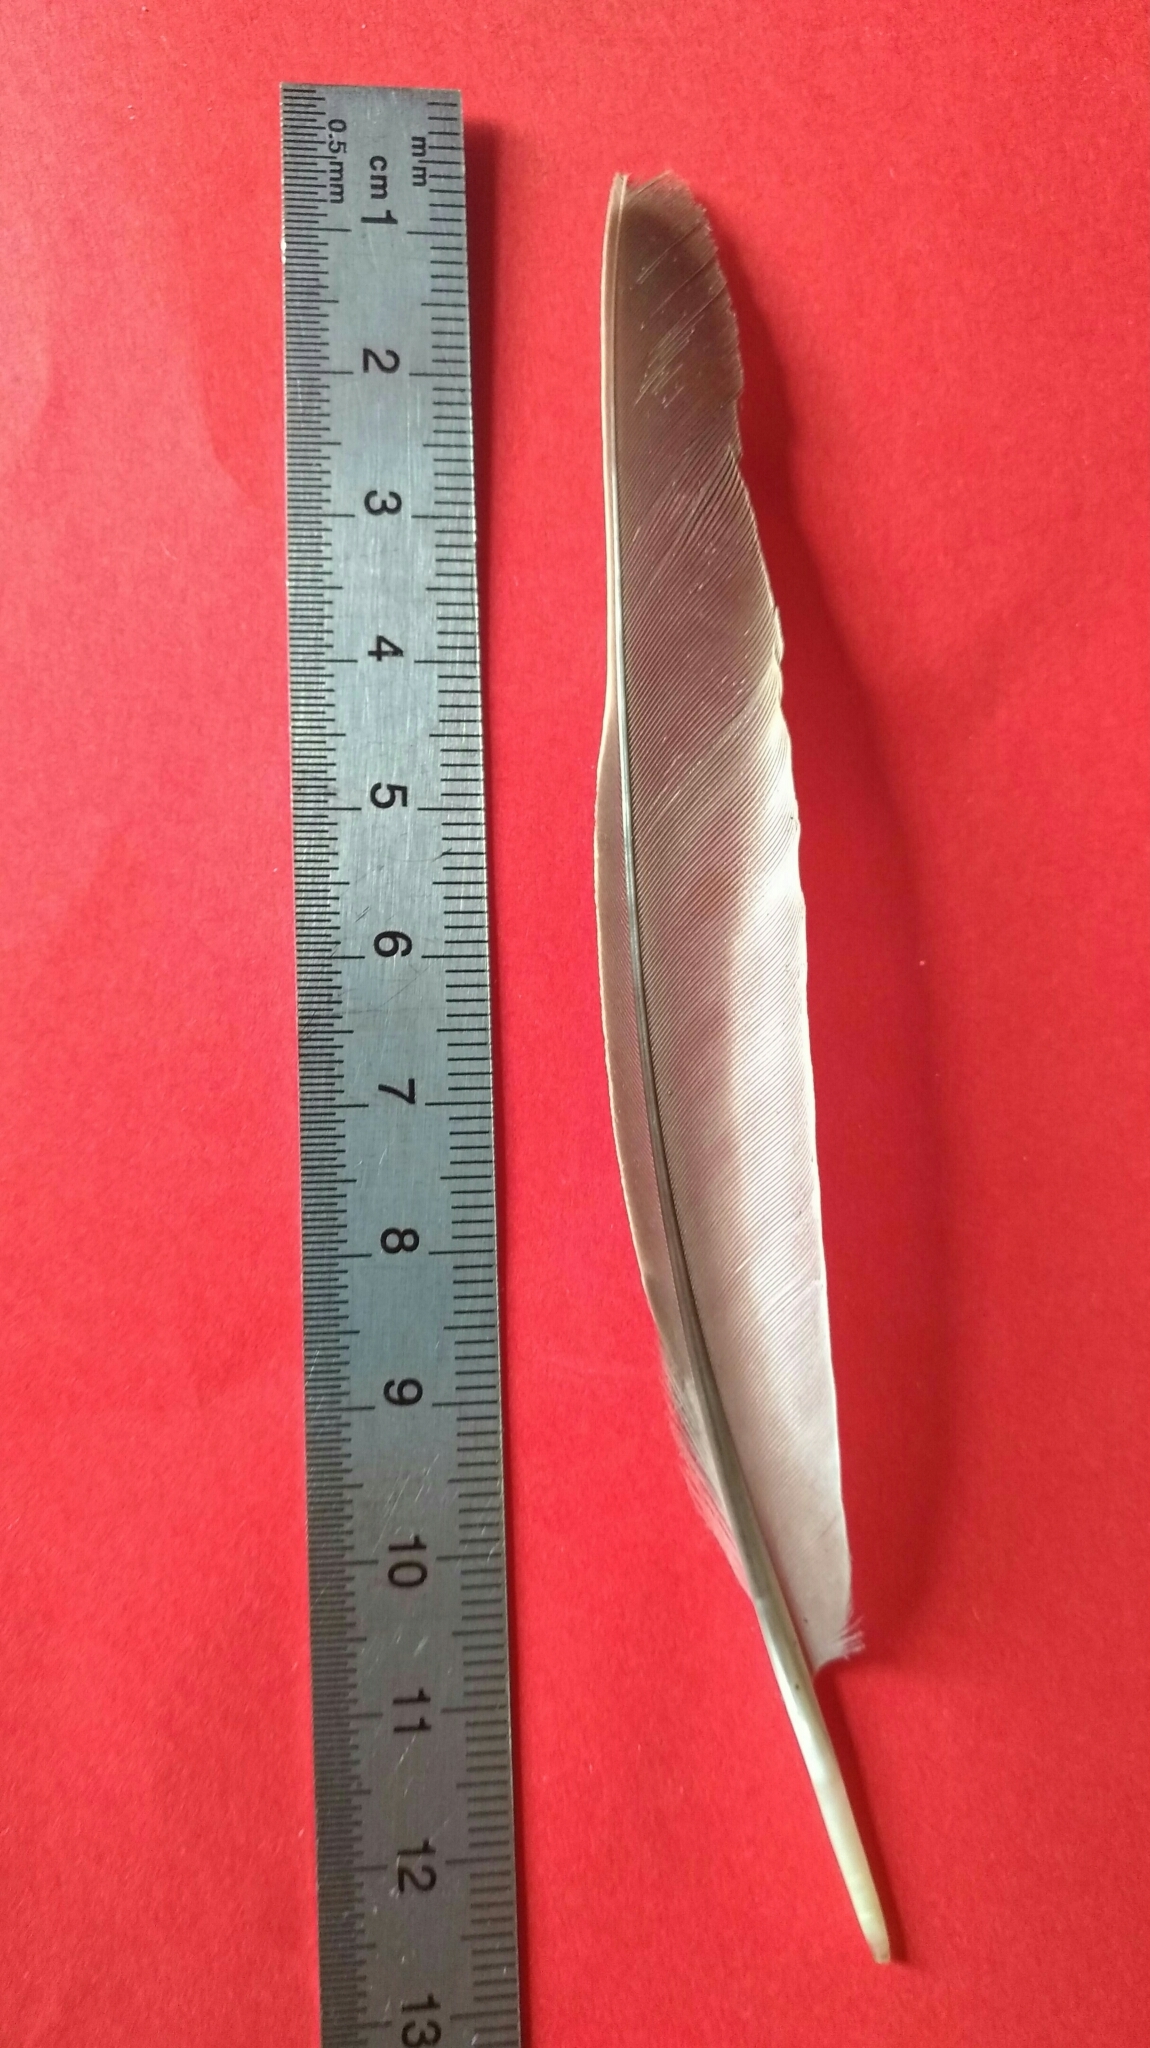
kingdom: Animalia
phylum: Chordata
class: Aves
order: Passeriformes
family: Turdidae
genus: Turdus
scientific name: Turdus viscivorus
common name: Mistle thrush
